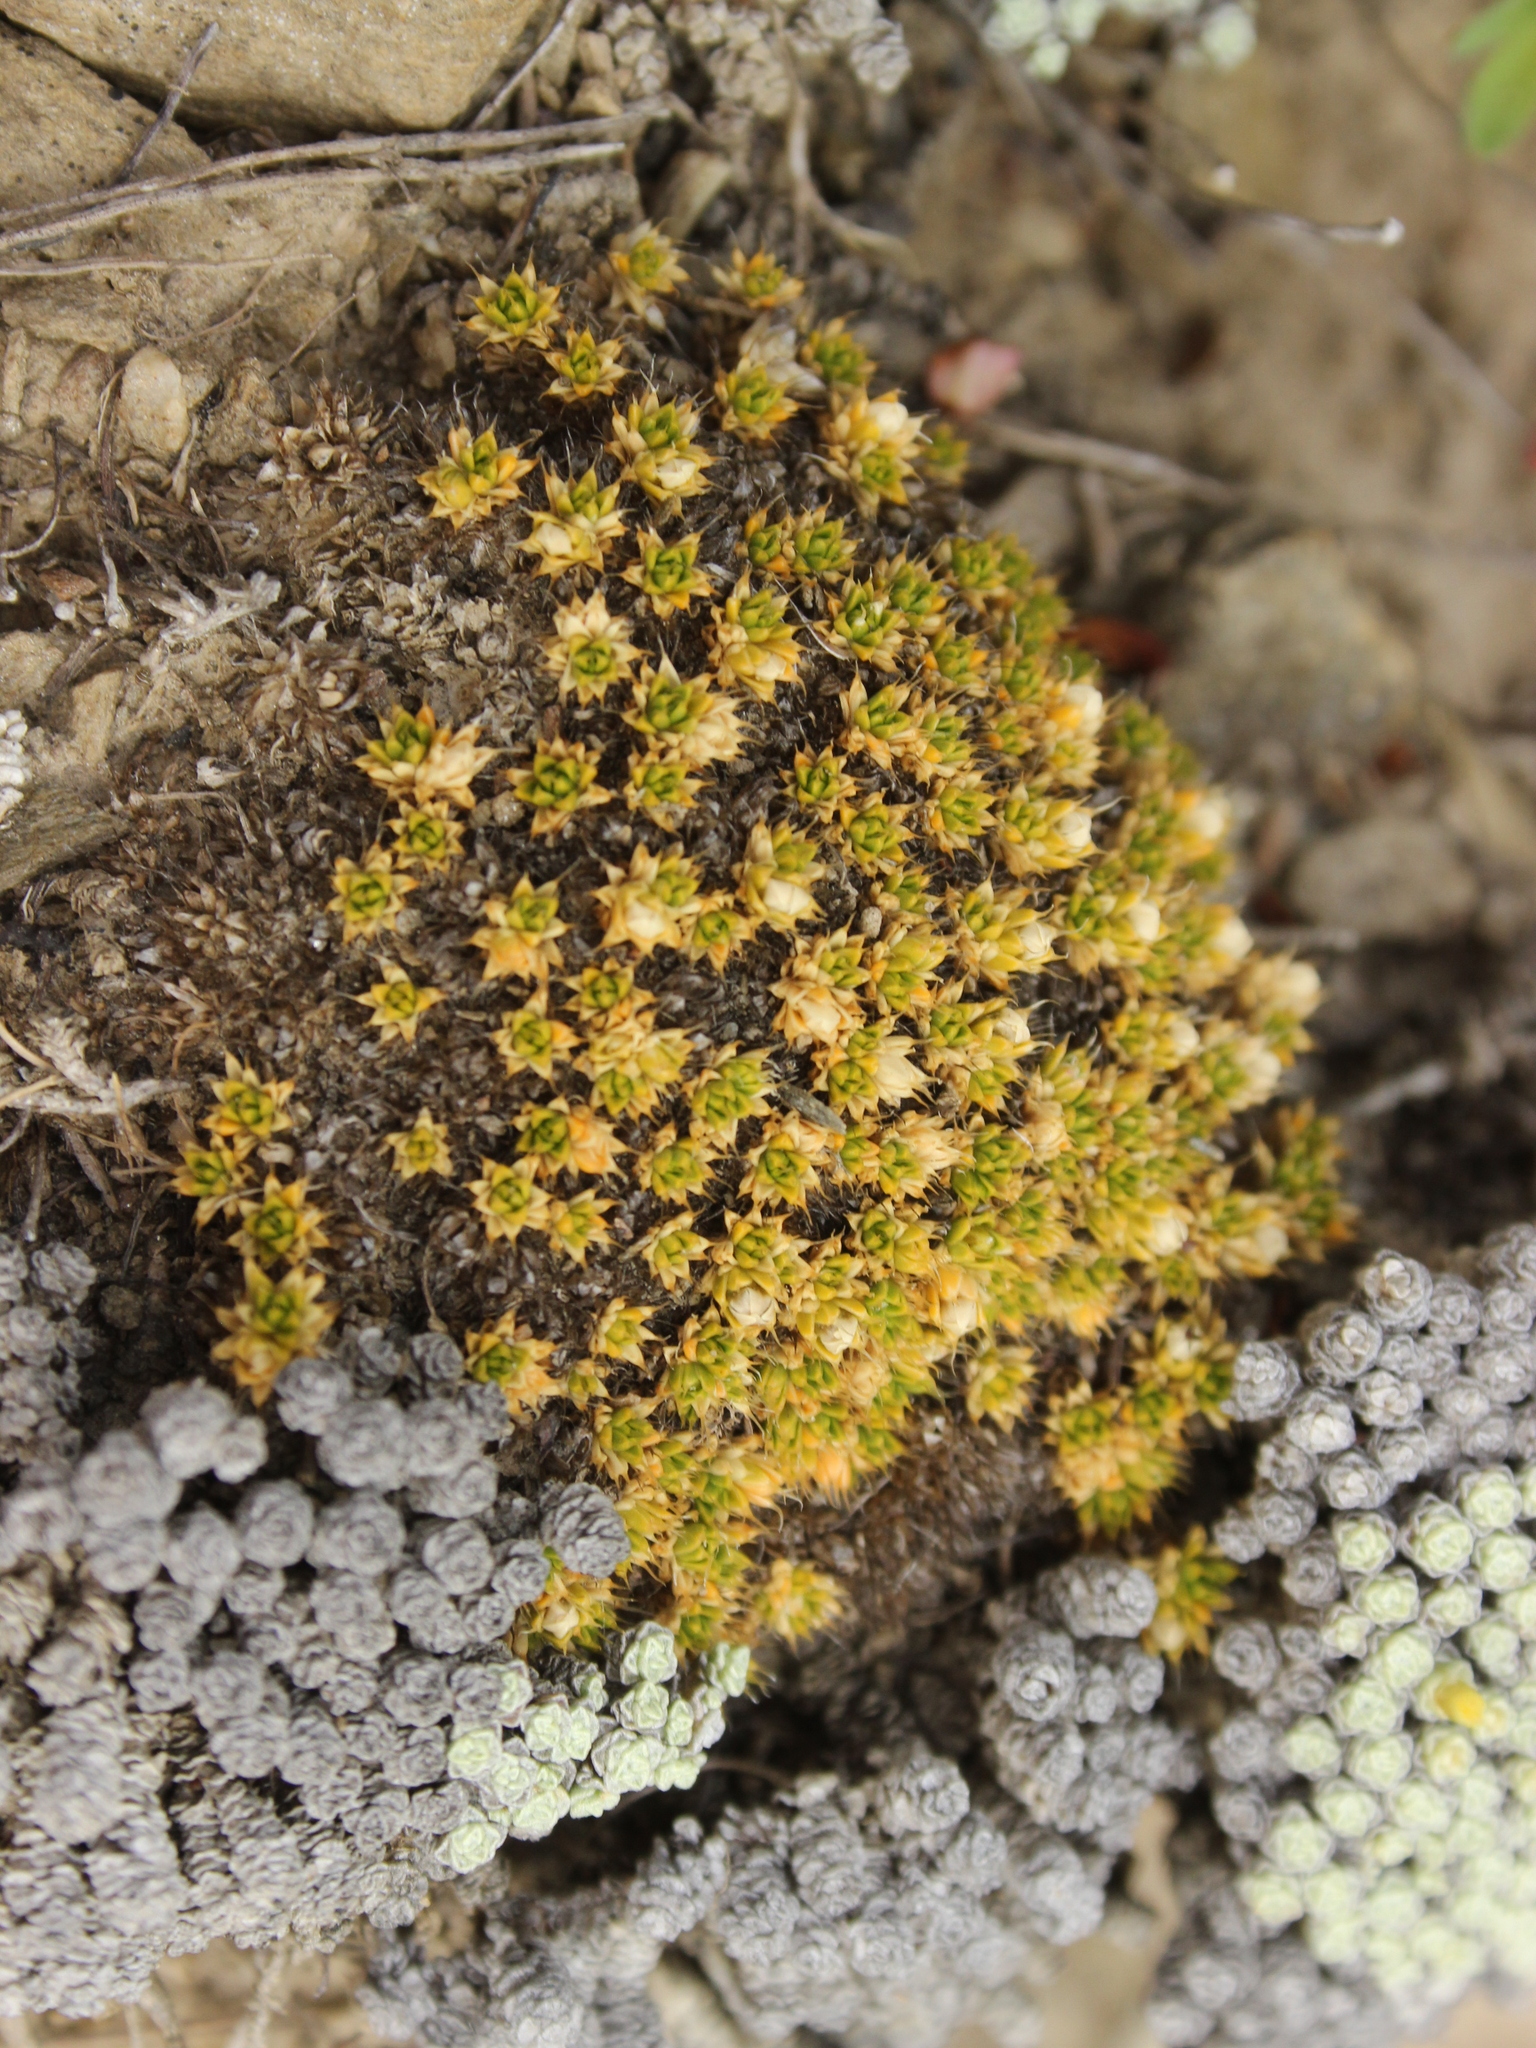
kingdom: Plantae
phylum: Tracheophyta
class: Magnoliopsida
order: Caryophyllales
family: Caryophyllaceae
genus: Colobanthus
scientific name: Colobanthus brevisepalus
